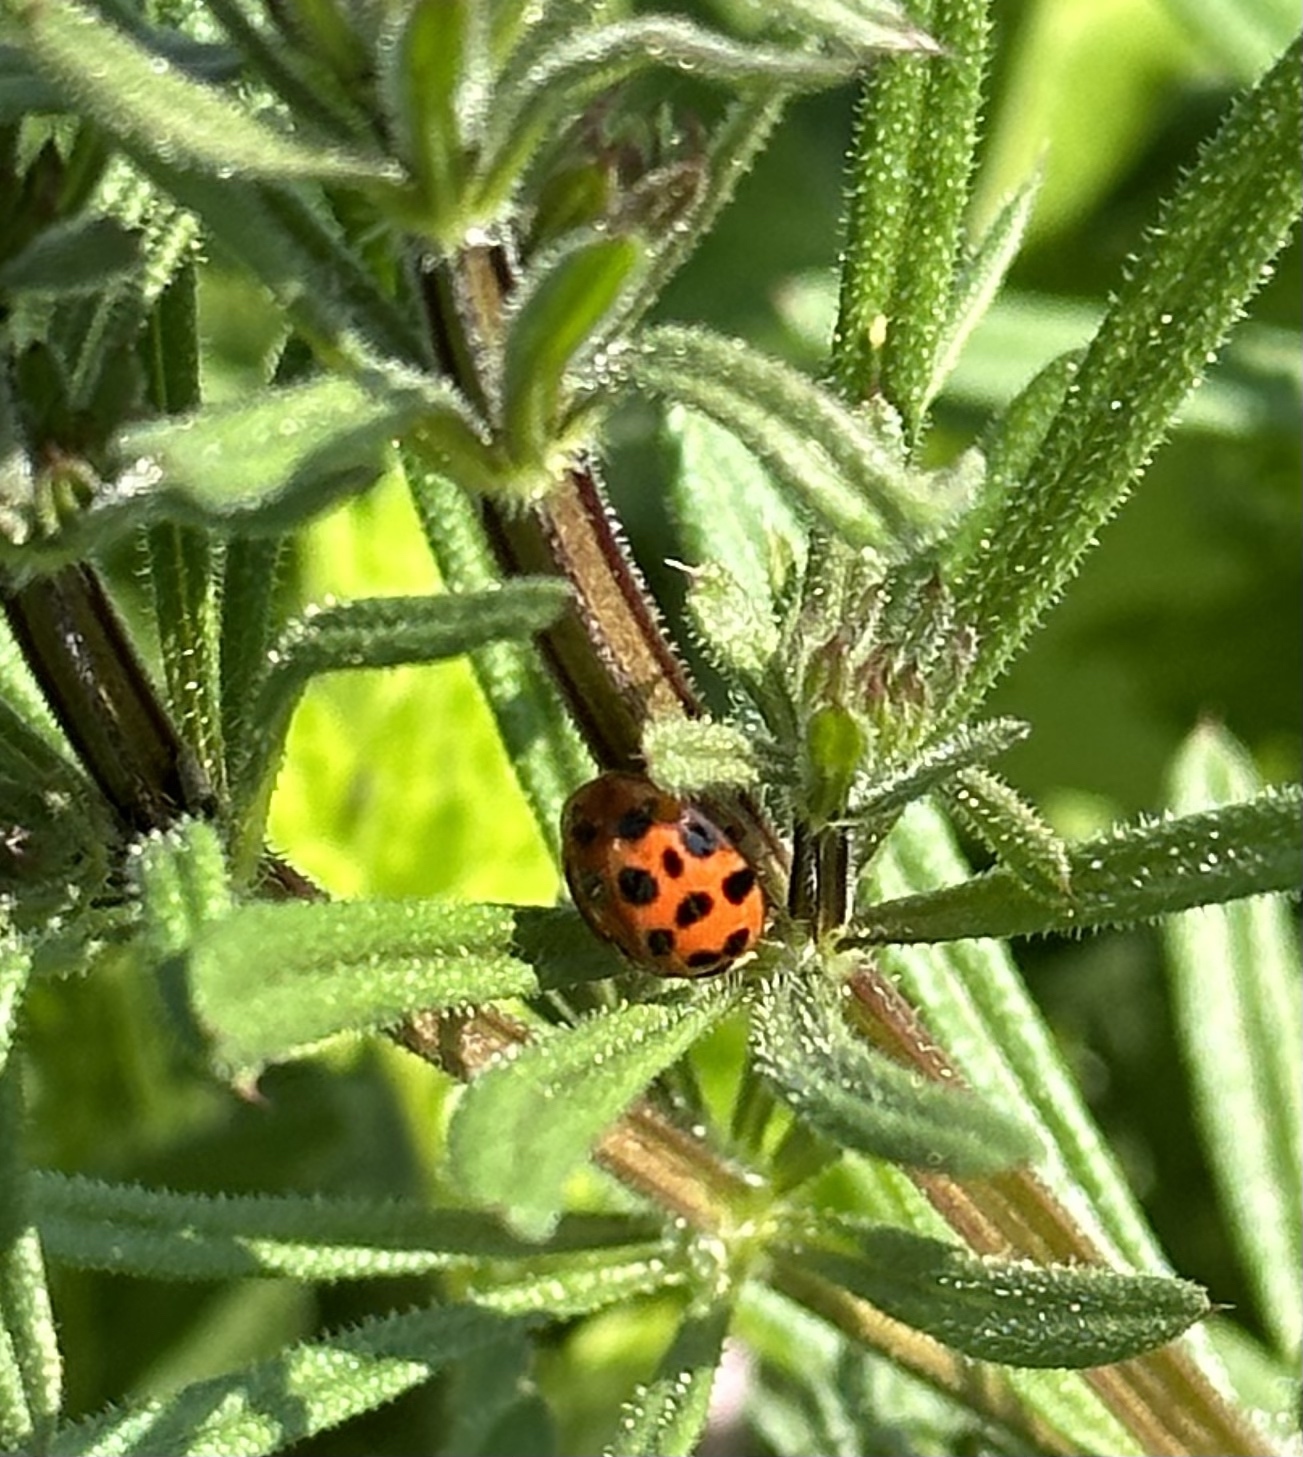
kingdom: Animalia
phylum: Arthropoda
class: Insecta
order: Coleoptera
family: Coccinellidae
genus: Harmonia
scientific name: Harmonia axyridis
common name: Harlequin ladybird
